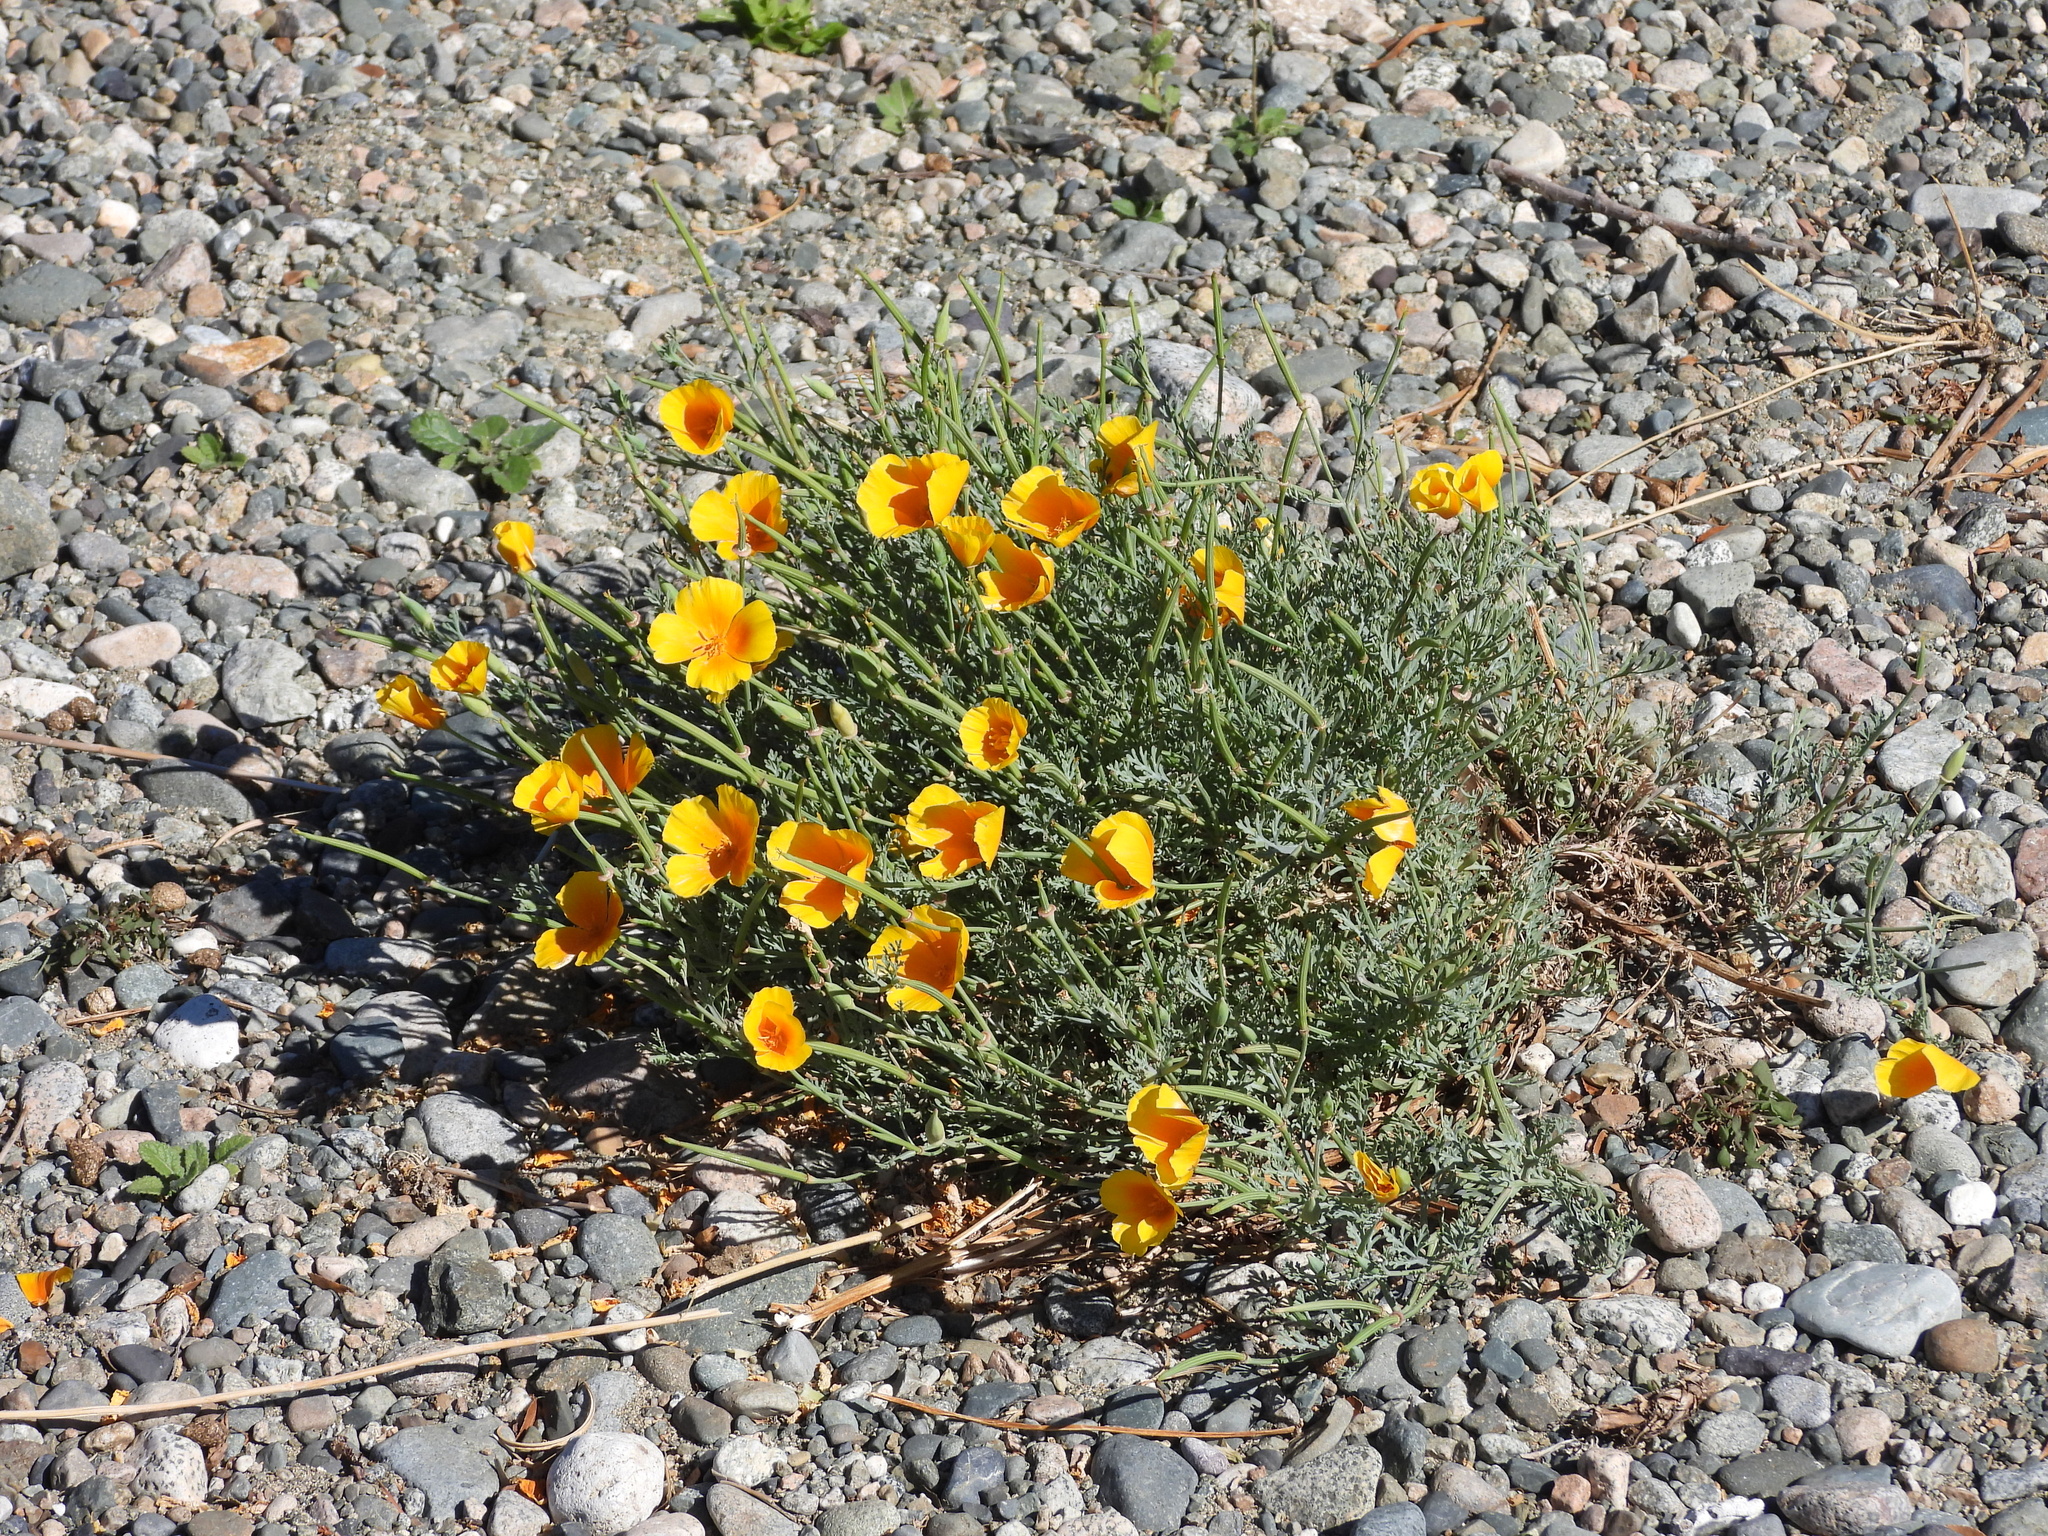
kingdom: Plantae
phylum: Tracheophyta
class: Magnoliopsida
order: Ranunculales
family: Papaveraceae
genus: Eschscholzia
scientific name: Eschscholzia californica
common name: California poppy
